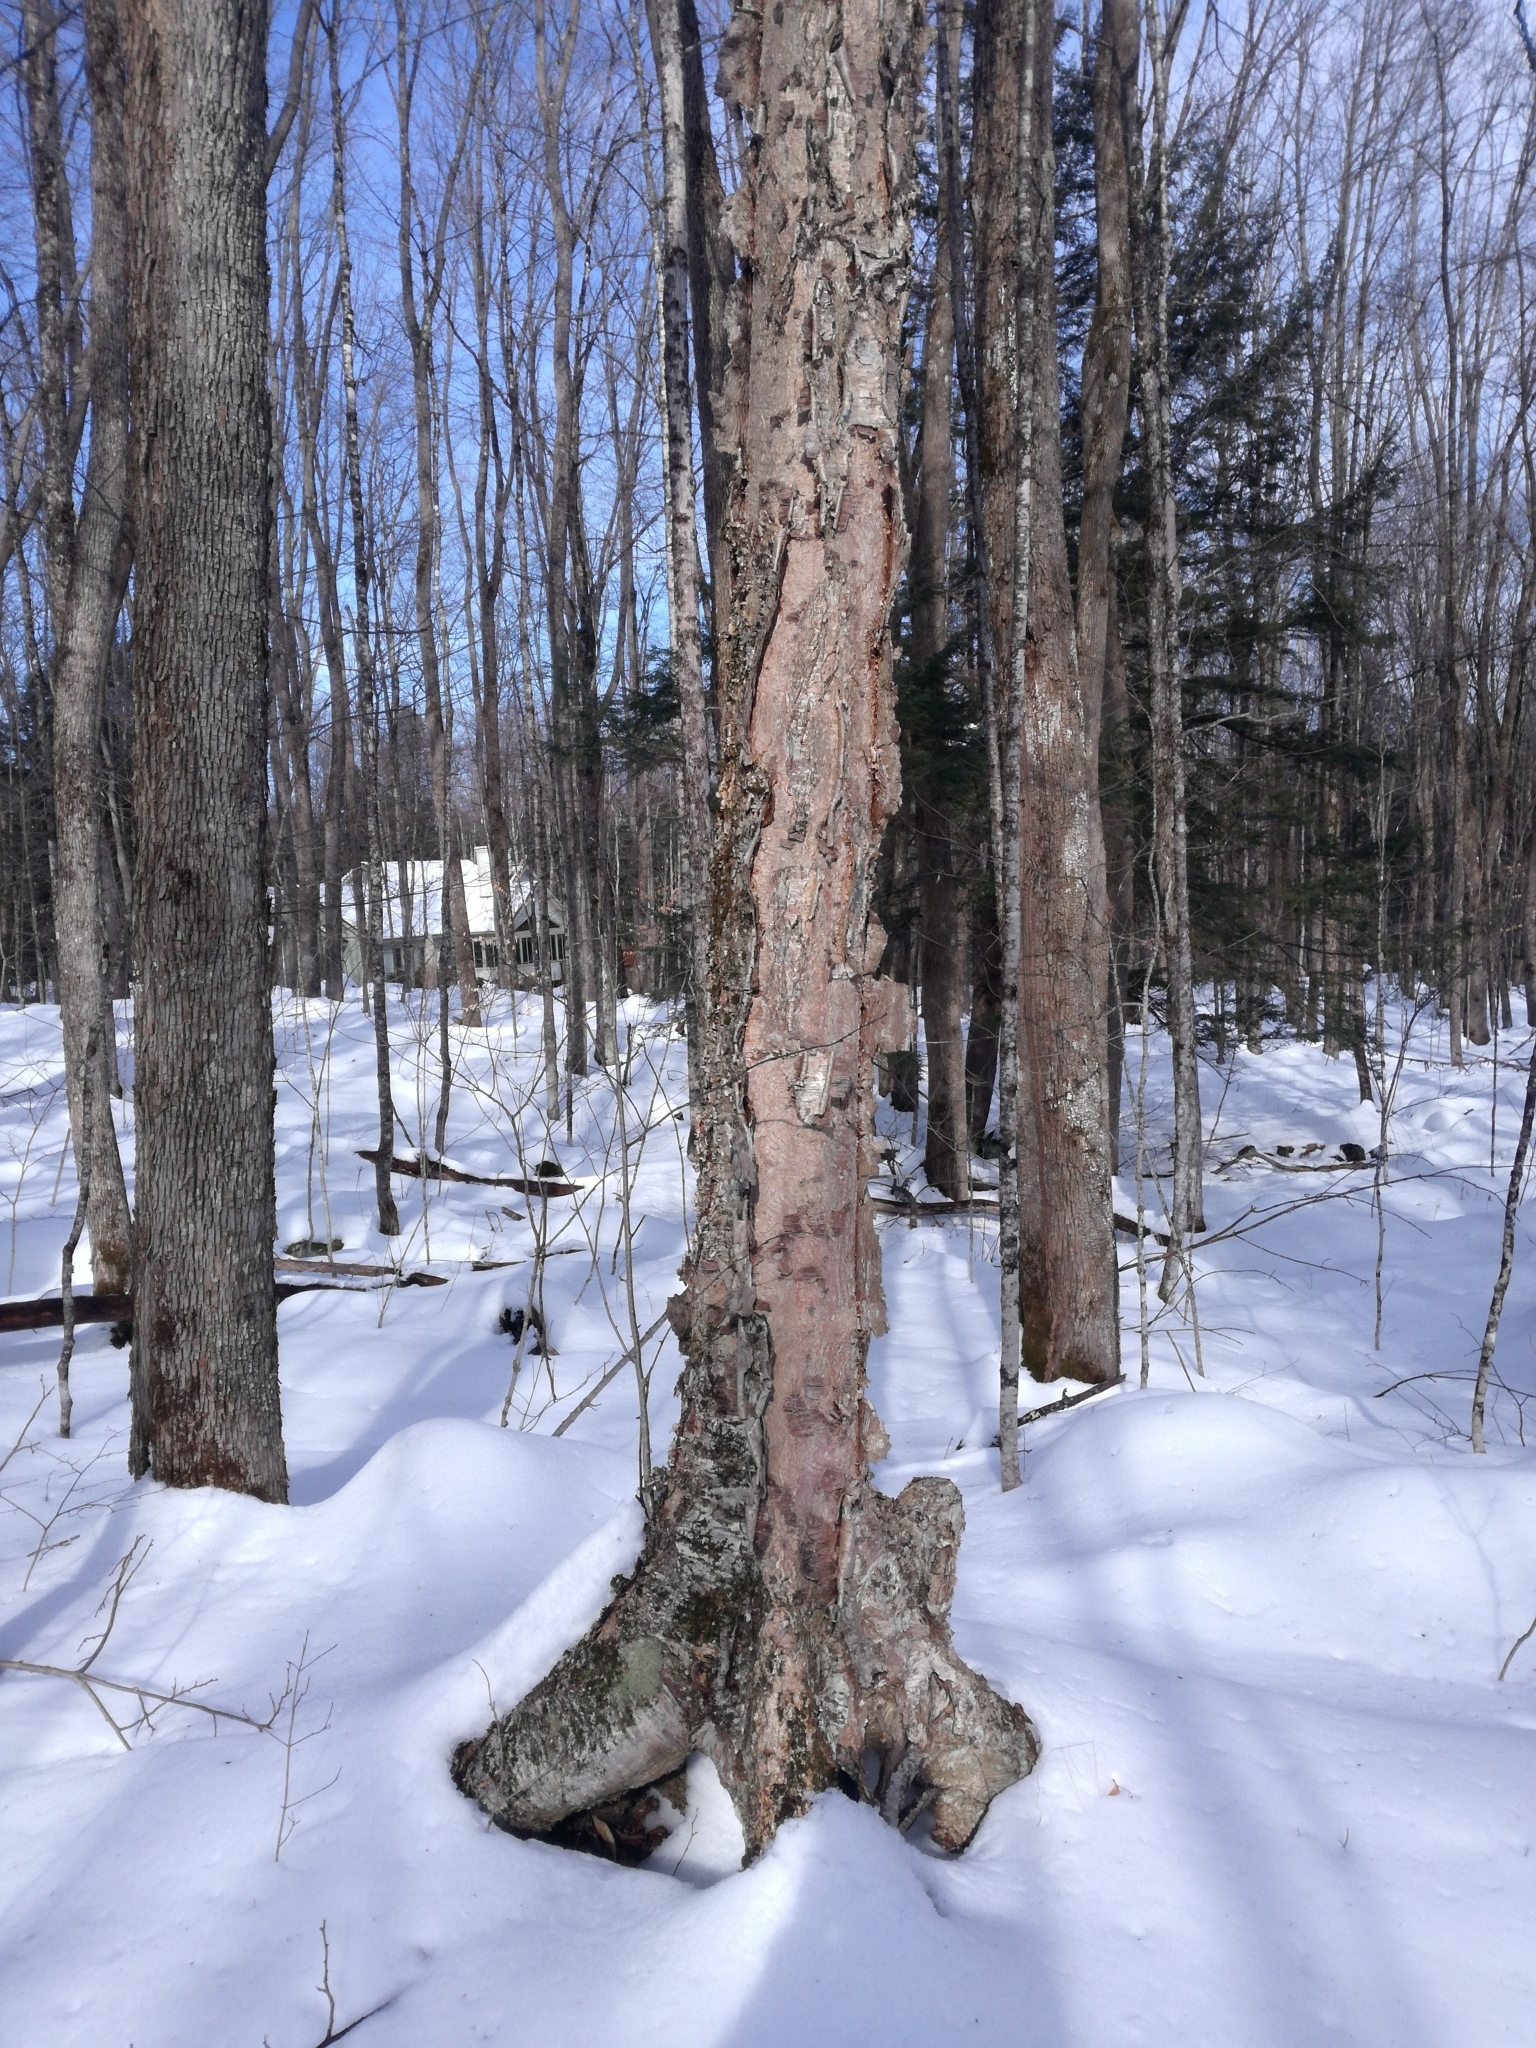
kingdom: Plantae
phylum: Tracheophyta
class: Magnoliopsida
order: Fagales
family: Betulaceae
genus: Betula
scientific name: Betula alleghaniensis
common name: Yellow birch
